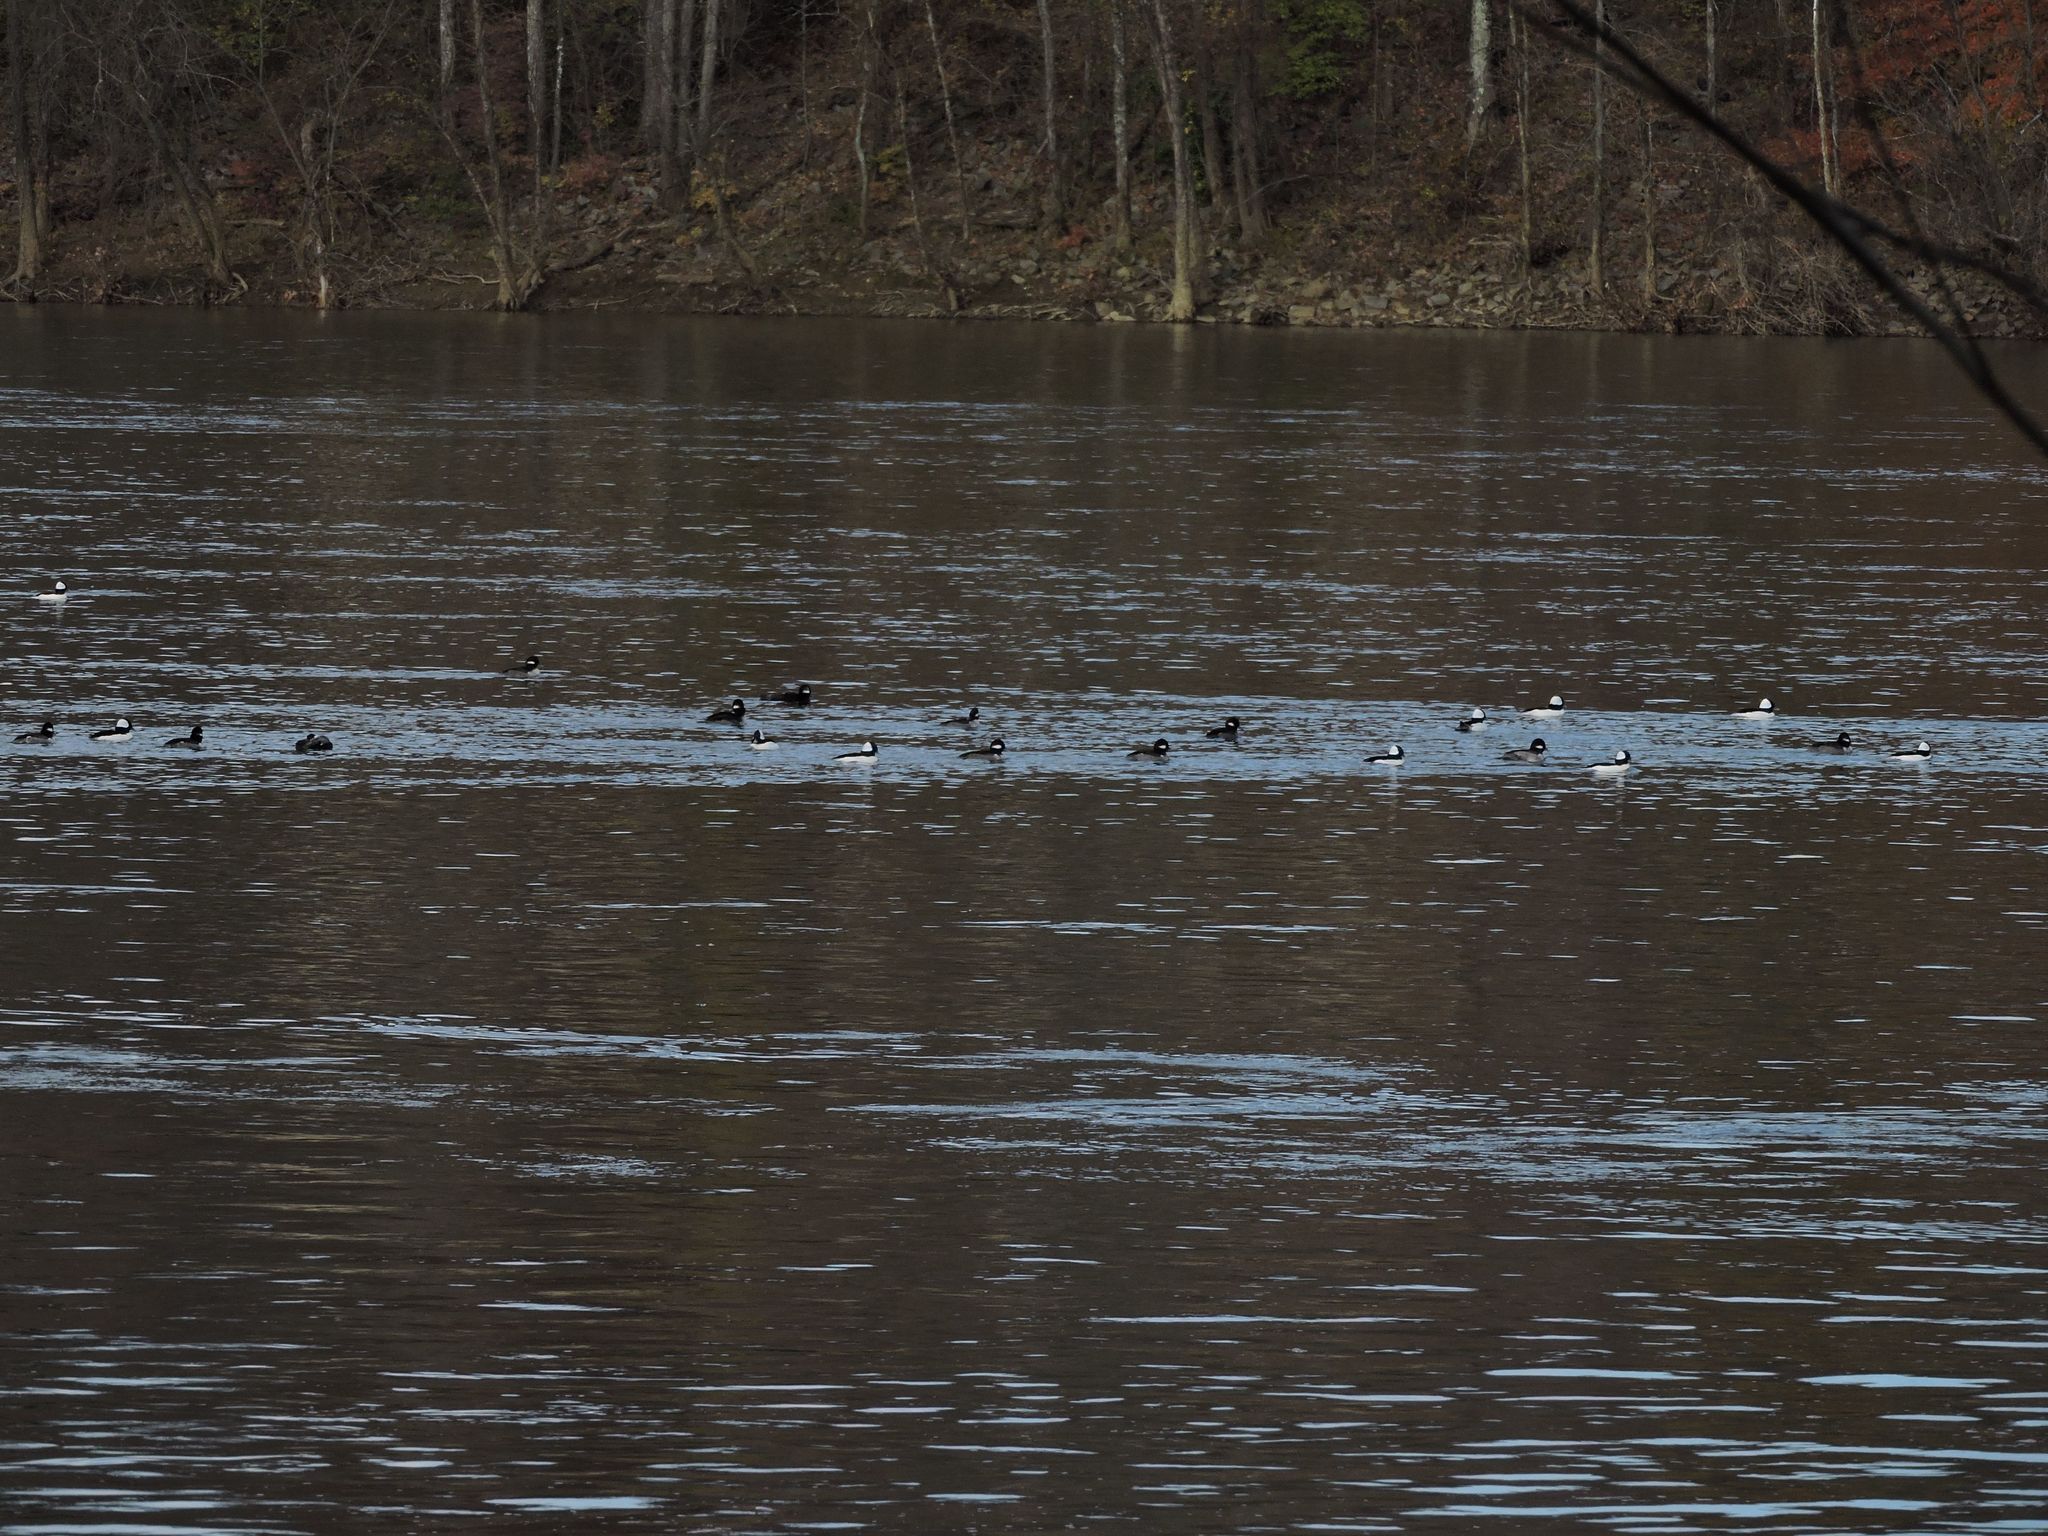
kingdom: Animalia
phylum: Chordata
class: Aves
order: Anseriformes
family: Anatidae
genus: Bucephala
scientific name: Bucephala albeola
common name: Bufflehead
